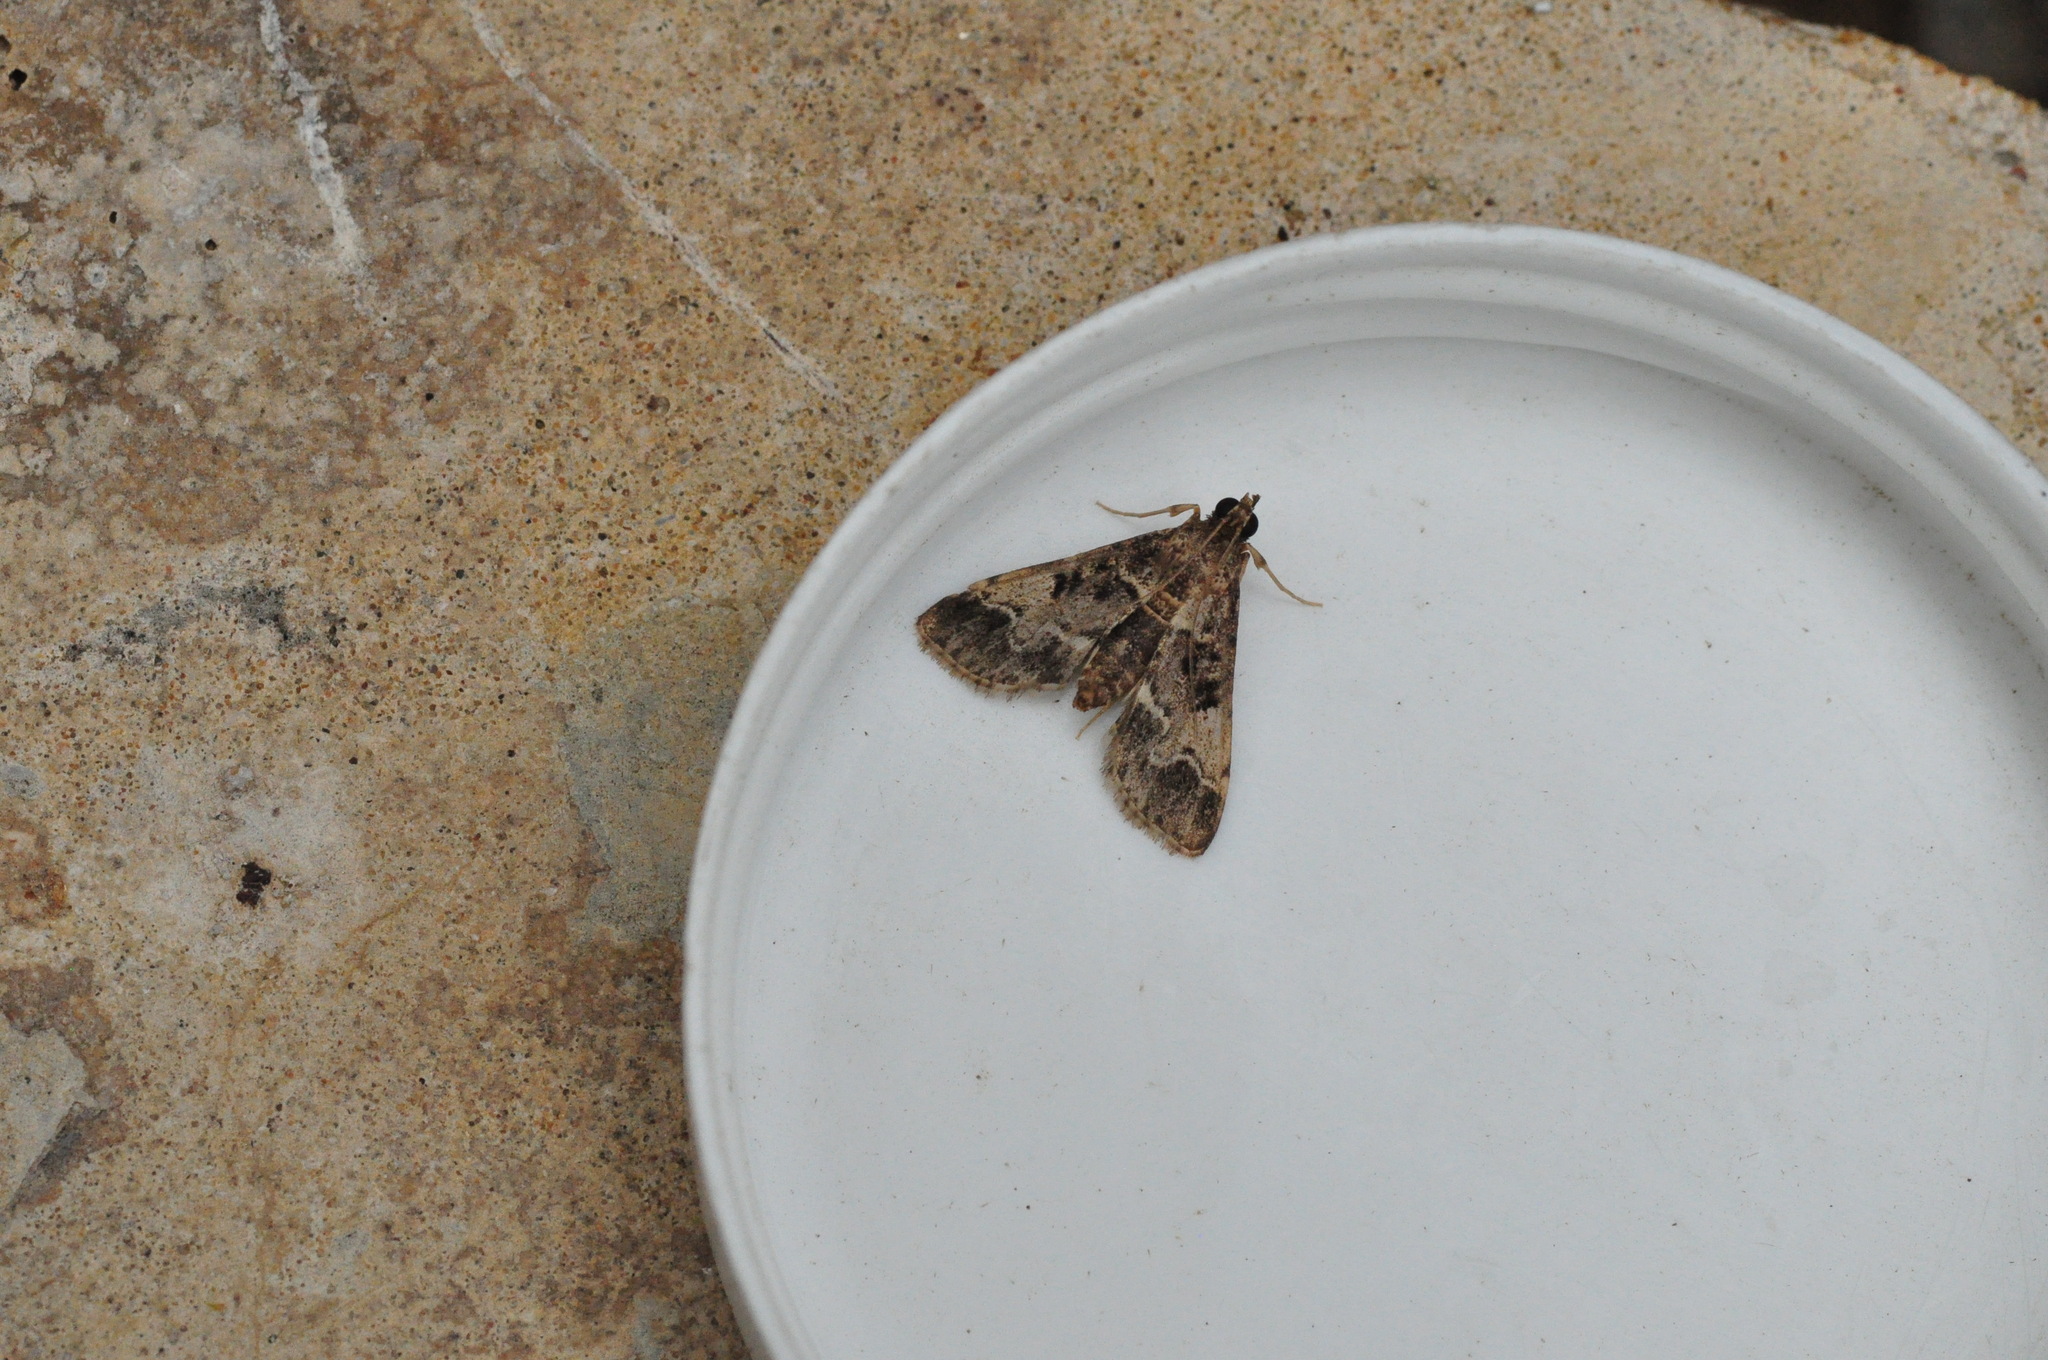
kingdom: Animalia
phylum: Arthropoda
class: Insecta
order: Lepidoptera
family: Crambidae
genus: Duponchelia
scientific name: Duponchelia fovealis
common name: Crambid moth
